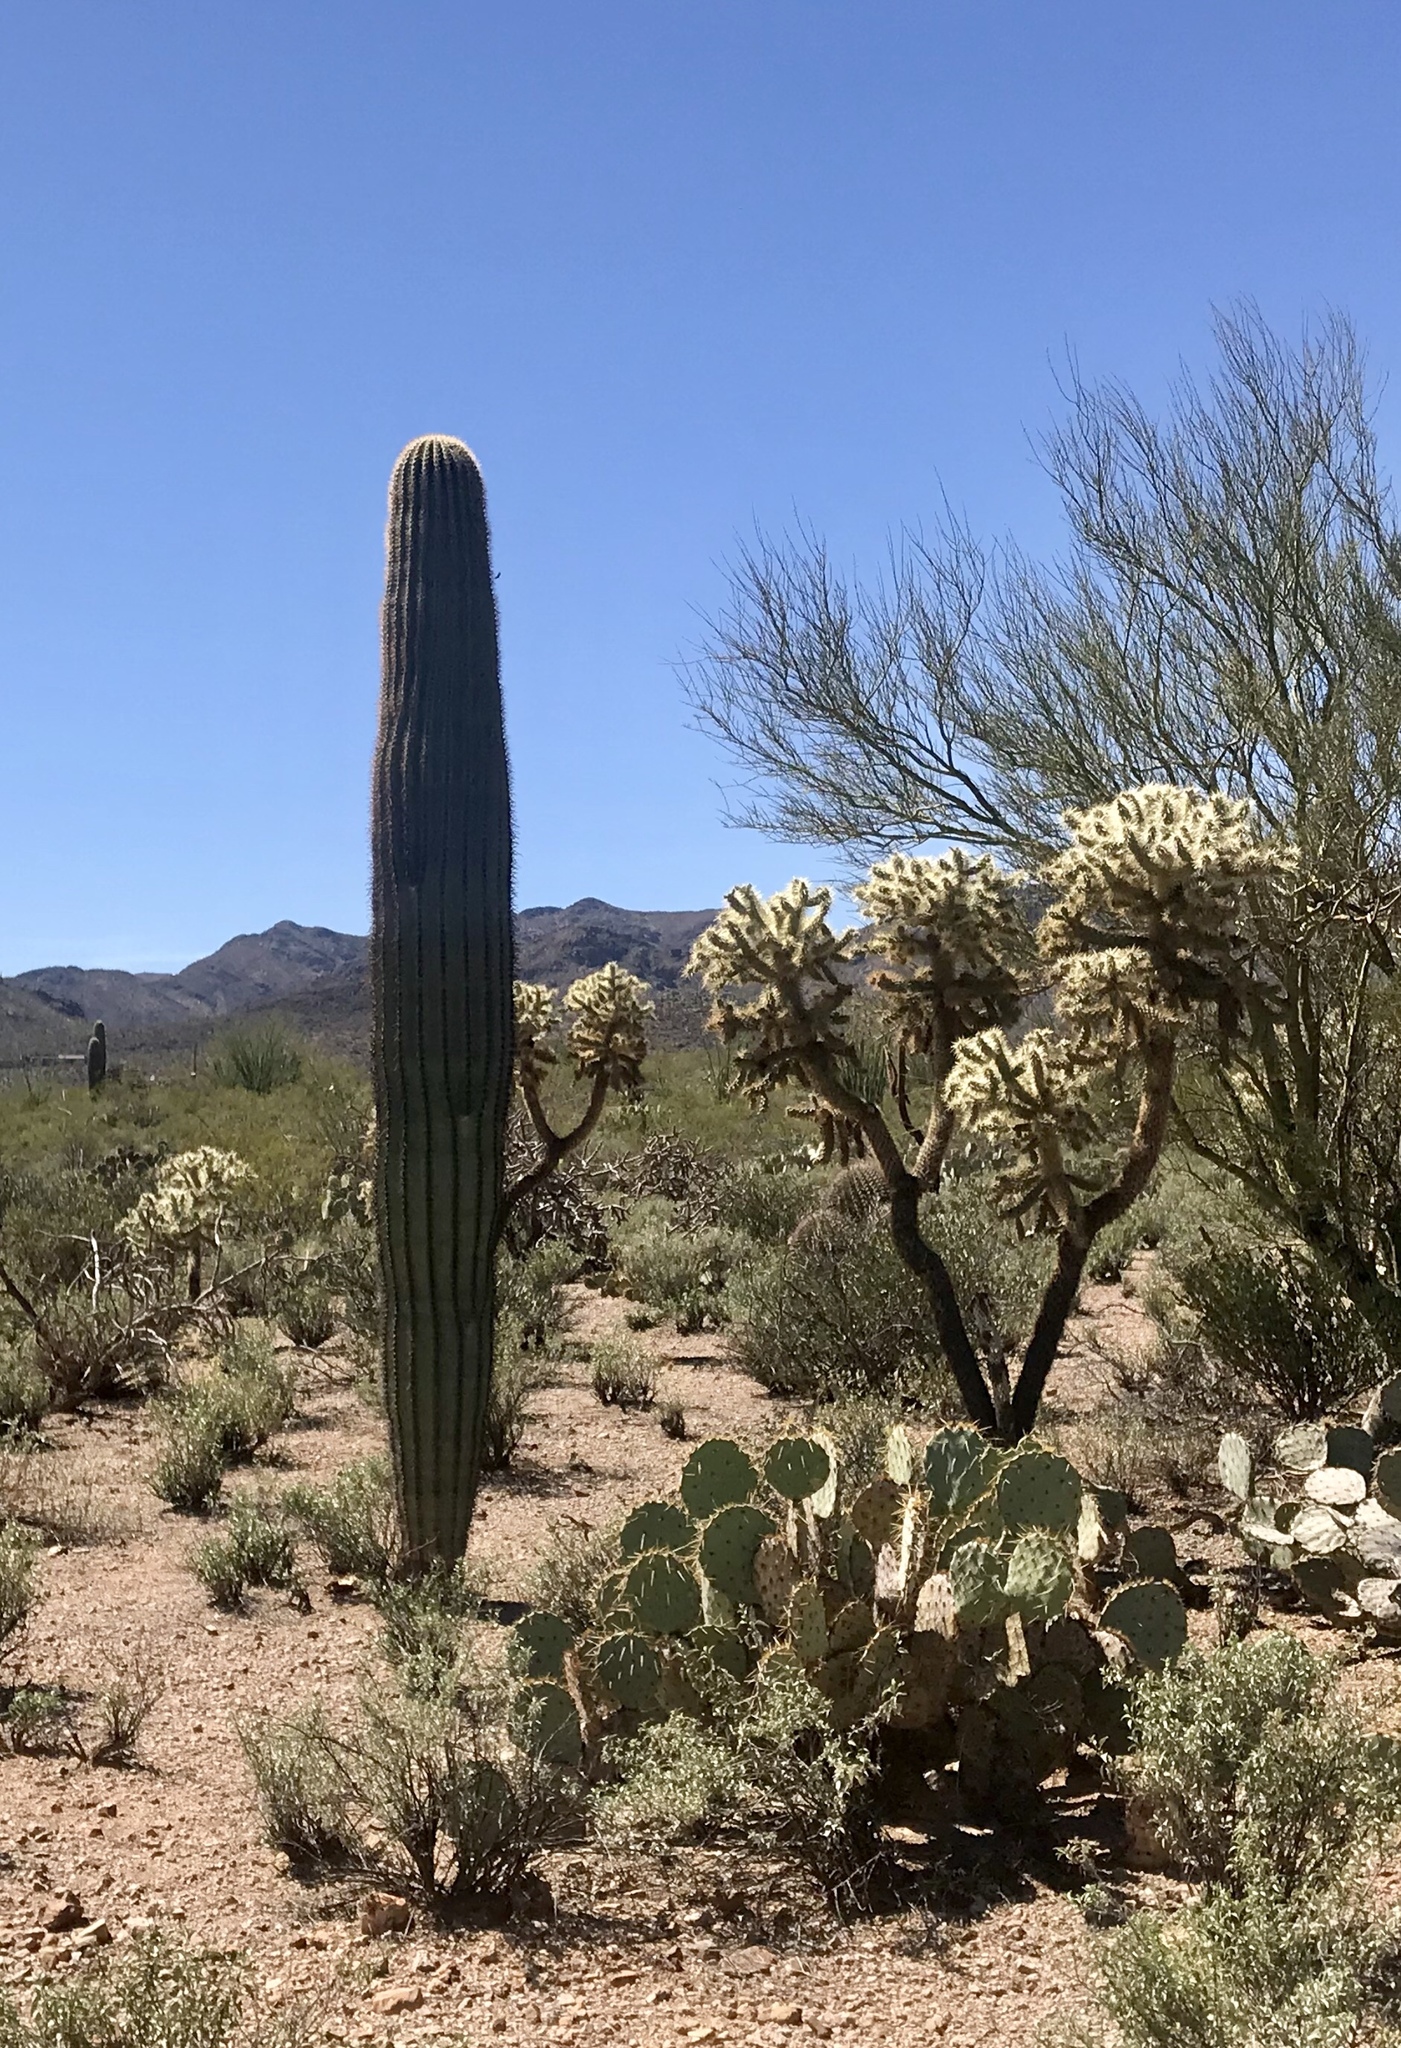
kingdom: Plantae
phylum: Tracheophyta
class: Magnoliopsida
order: Caryophyllales
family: Cactaceae
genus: Opuntia
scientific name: Opuntia engelmannii
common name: Cactus-apple
